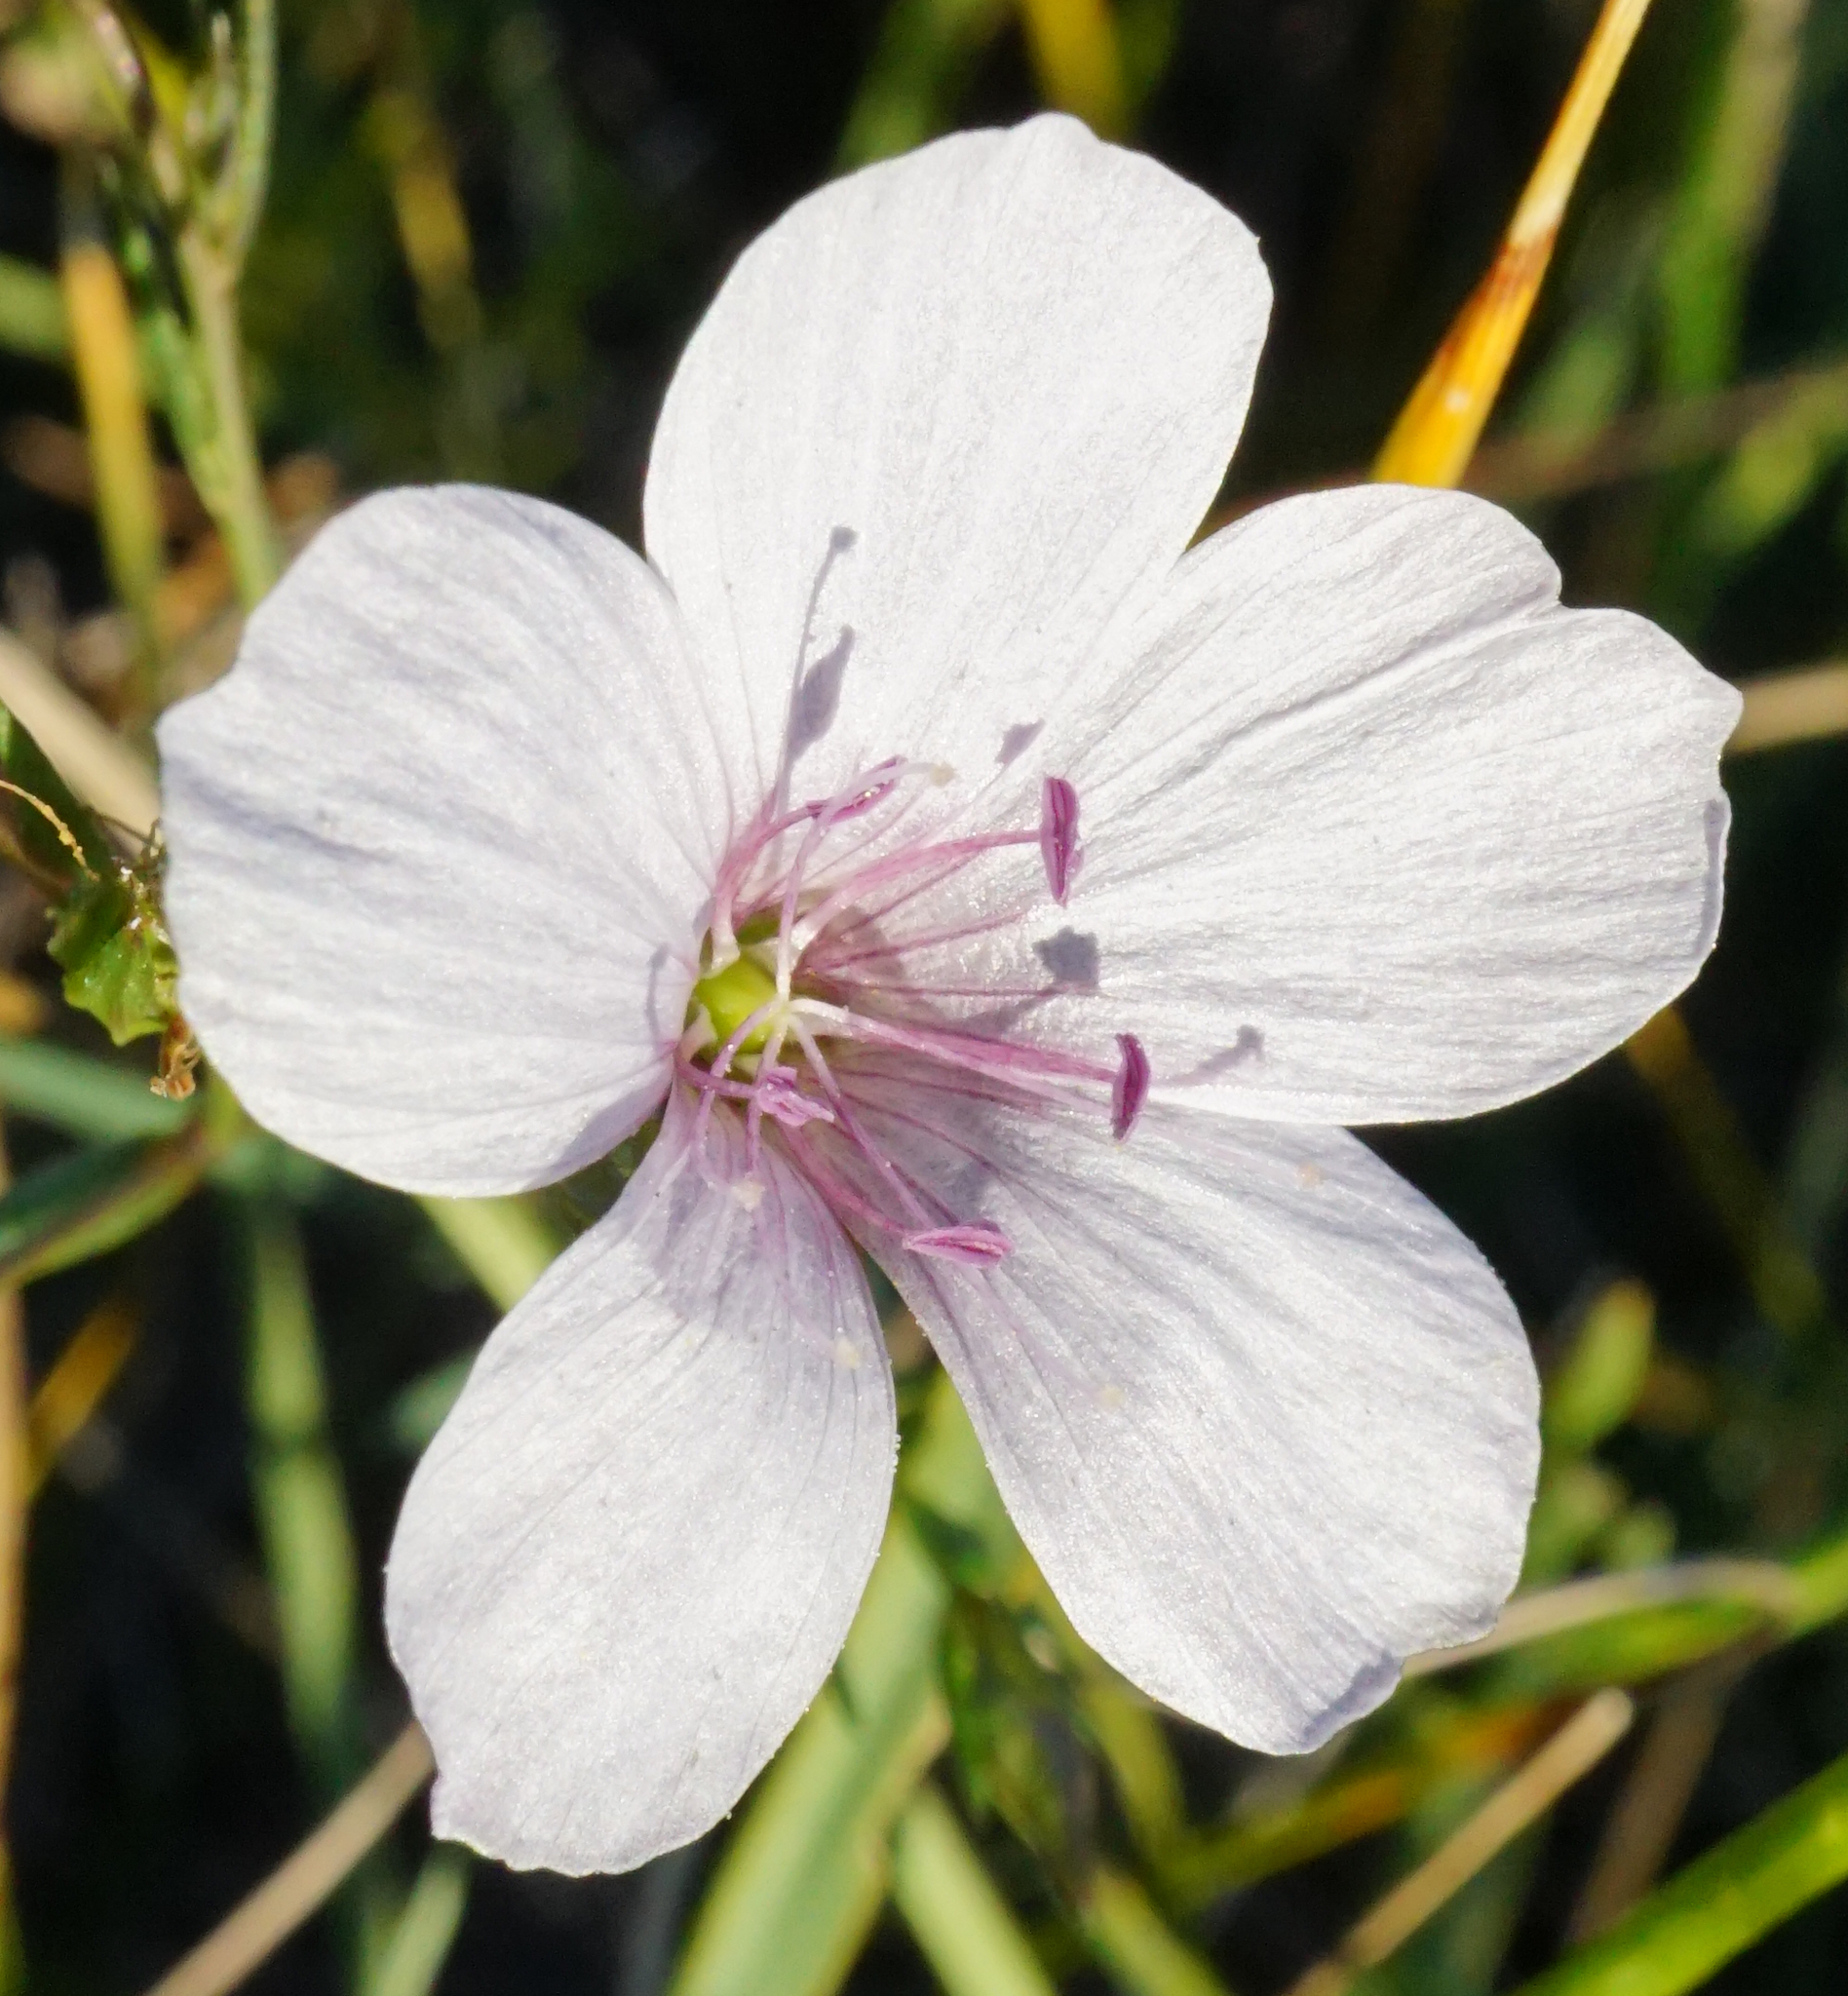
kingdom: Plantae
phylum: Tracheophyta
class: Magnoliopsida
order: Malpighiales
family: Linaceae
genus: Linum
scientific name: Linum tenuifolium
